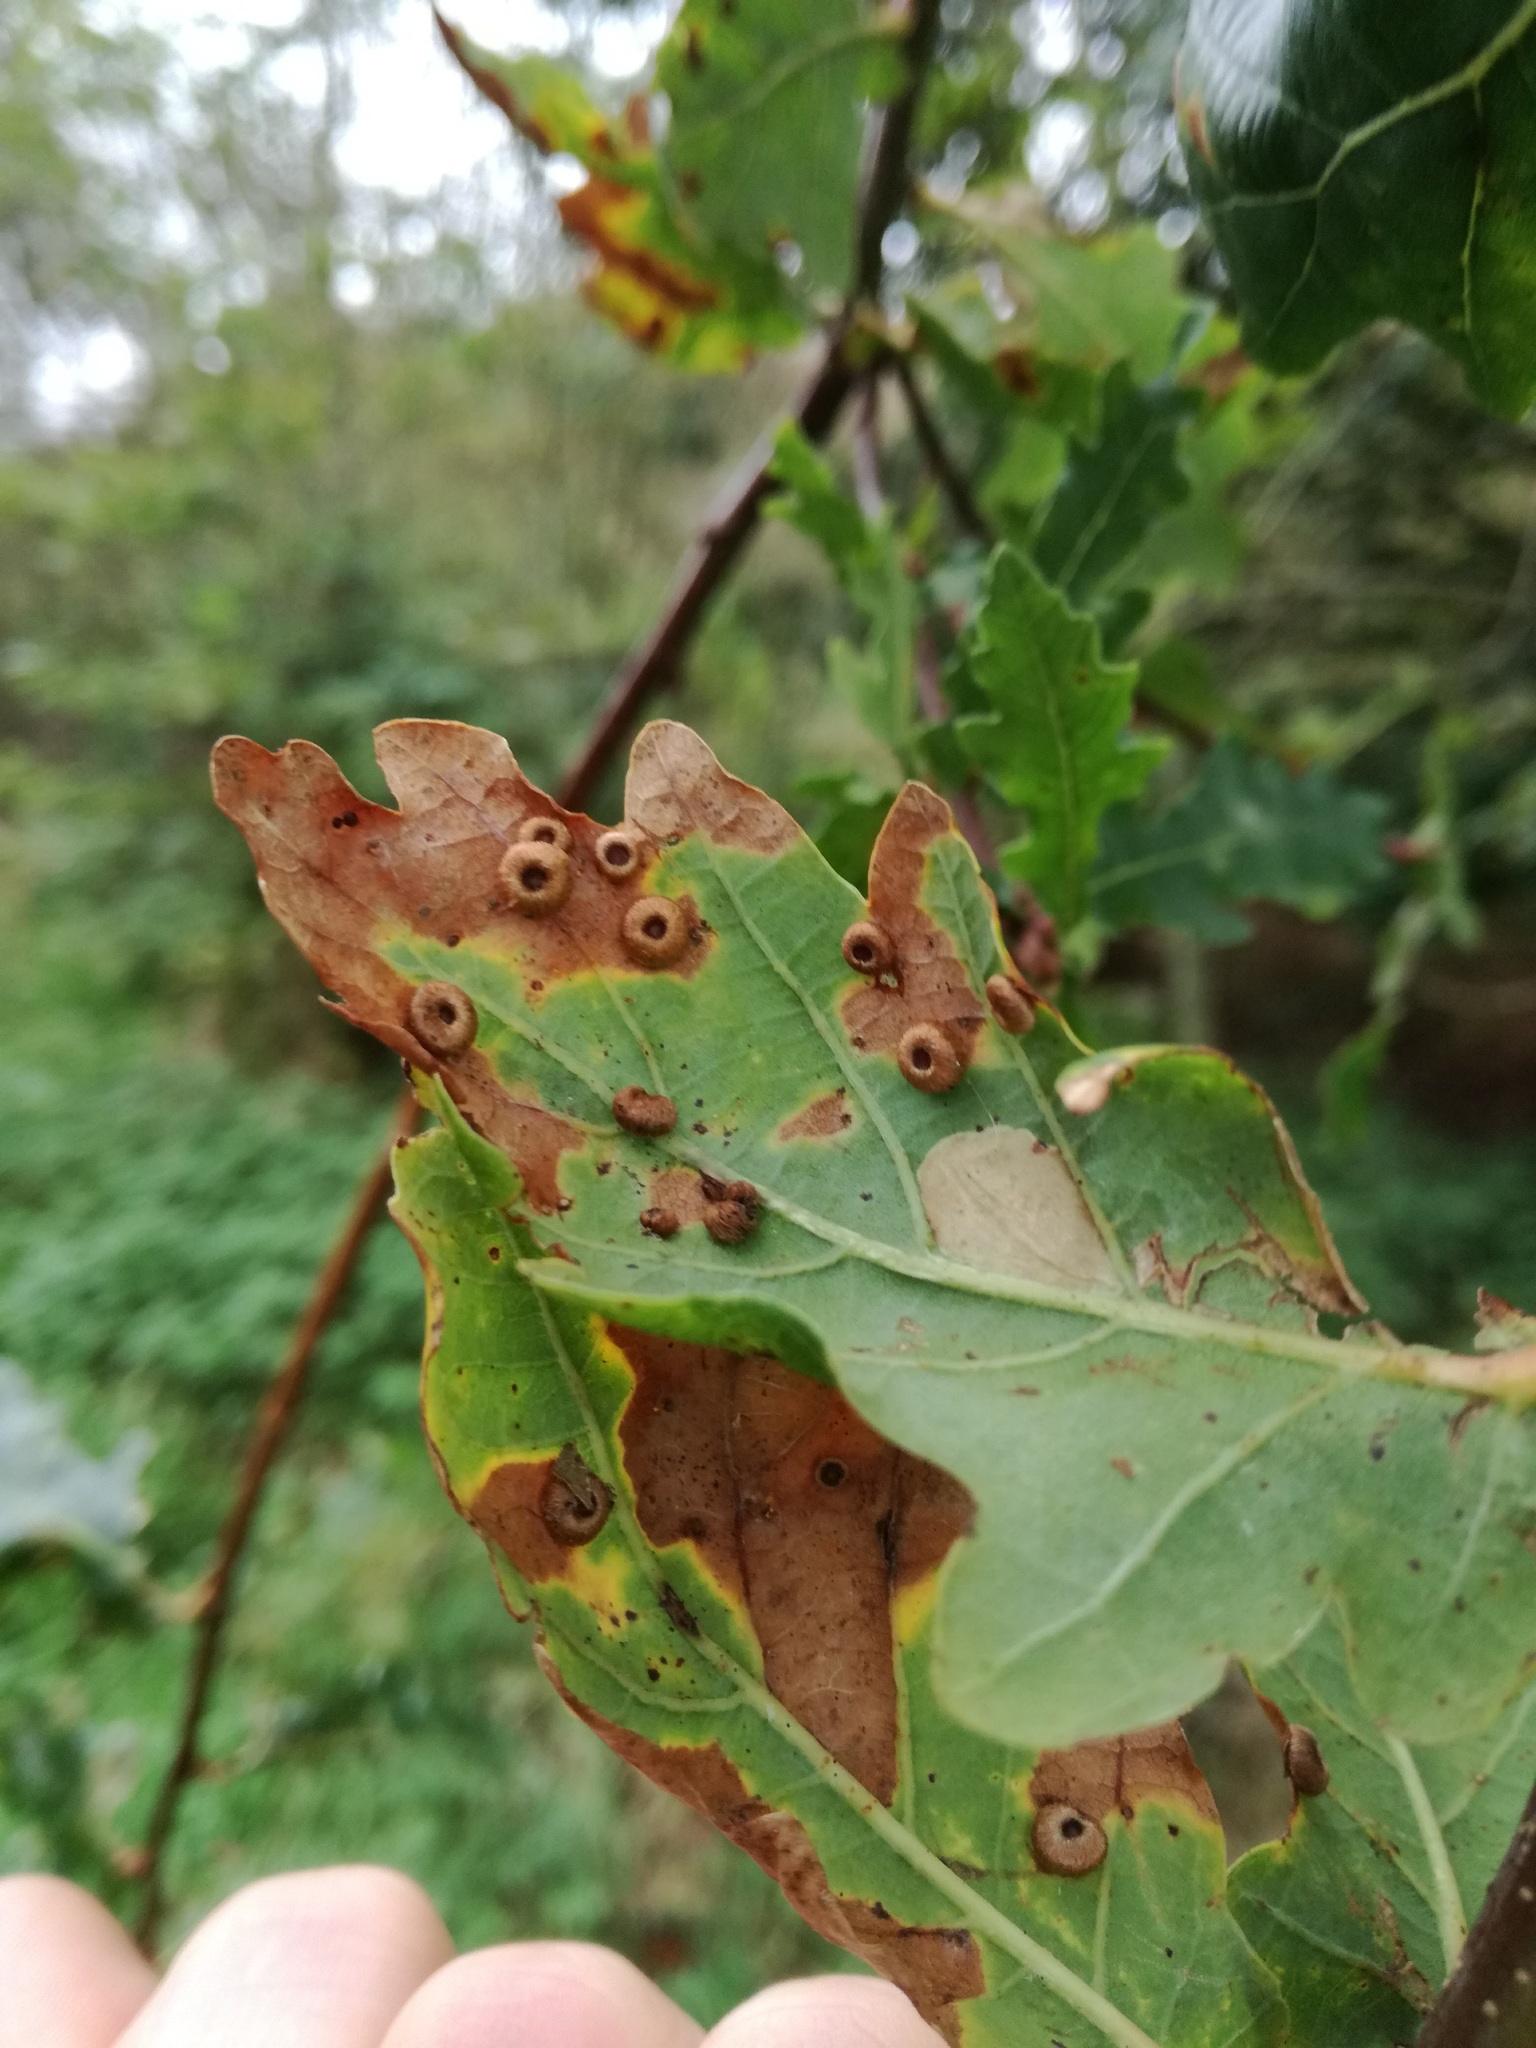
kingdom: Animalia
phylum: Arthropoda
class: Insecta
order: Hymenoptera
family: Cynipidae
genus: Neuroterus
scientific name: Neuroterus numismalis
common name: Silk-button spangle gall
